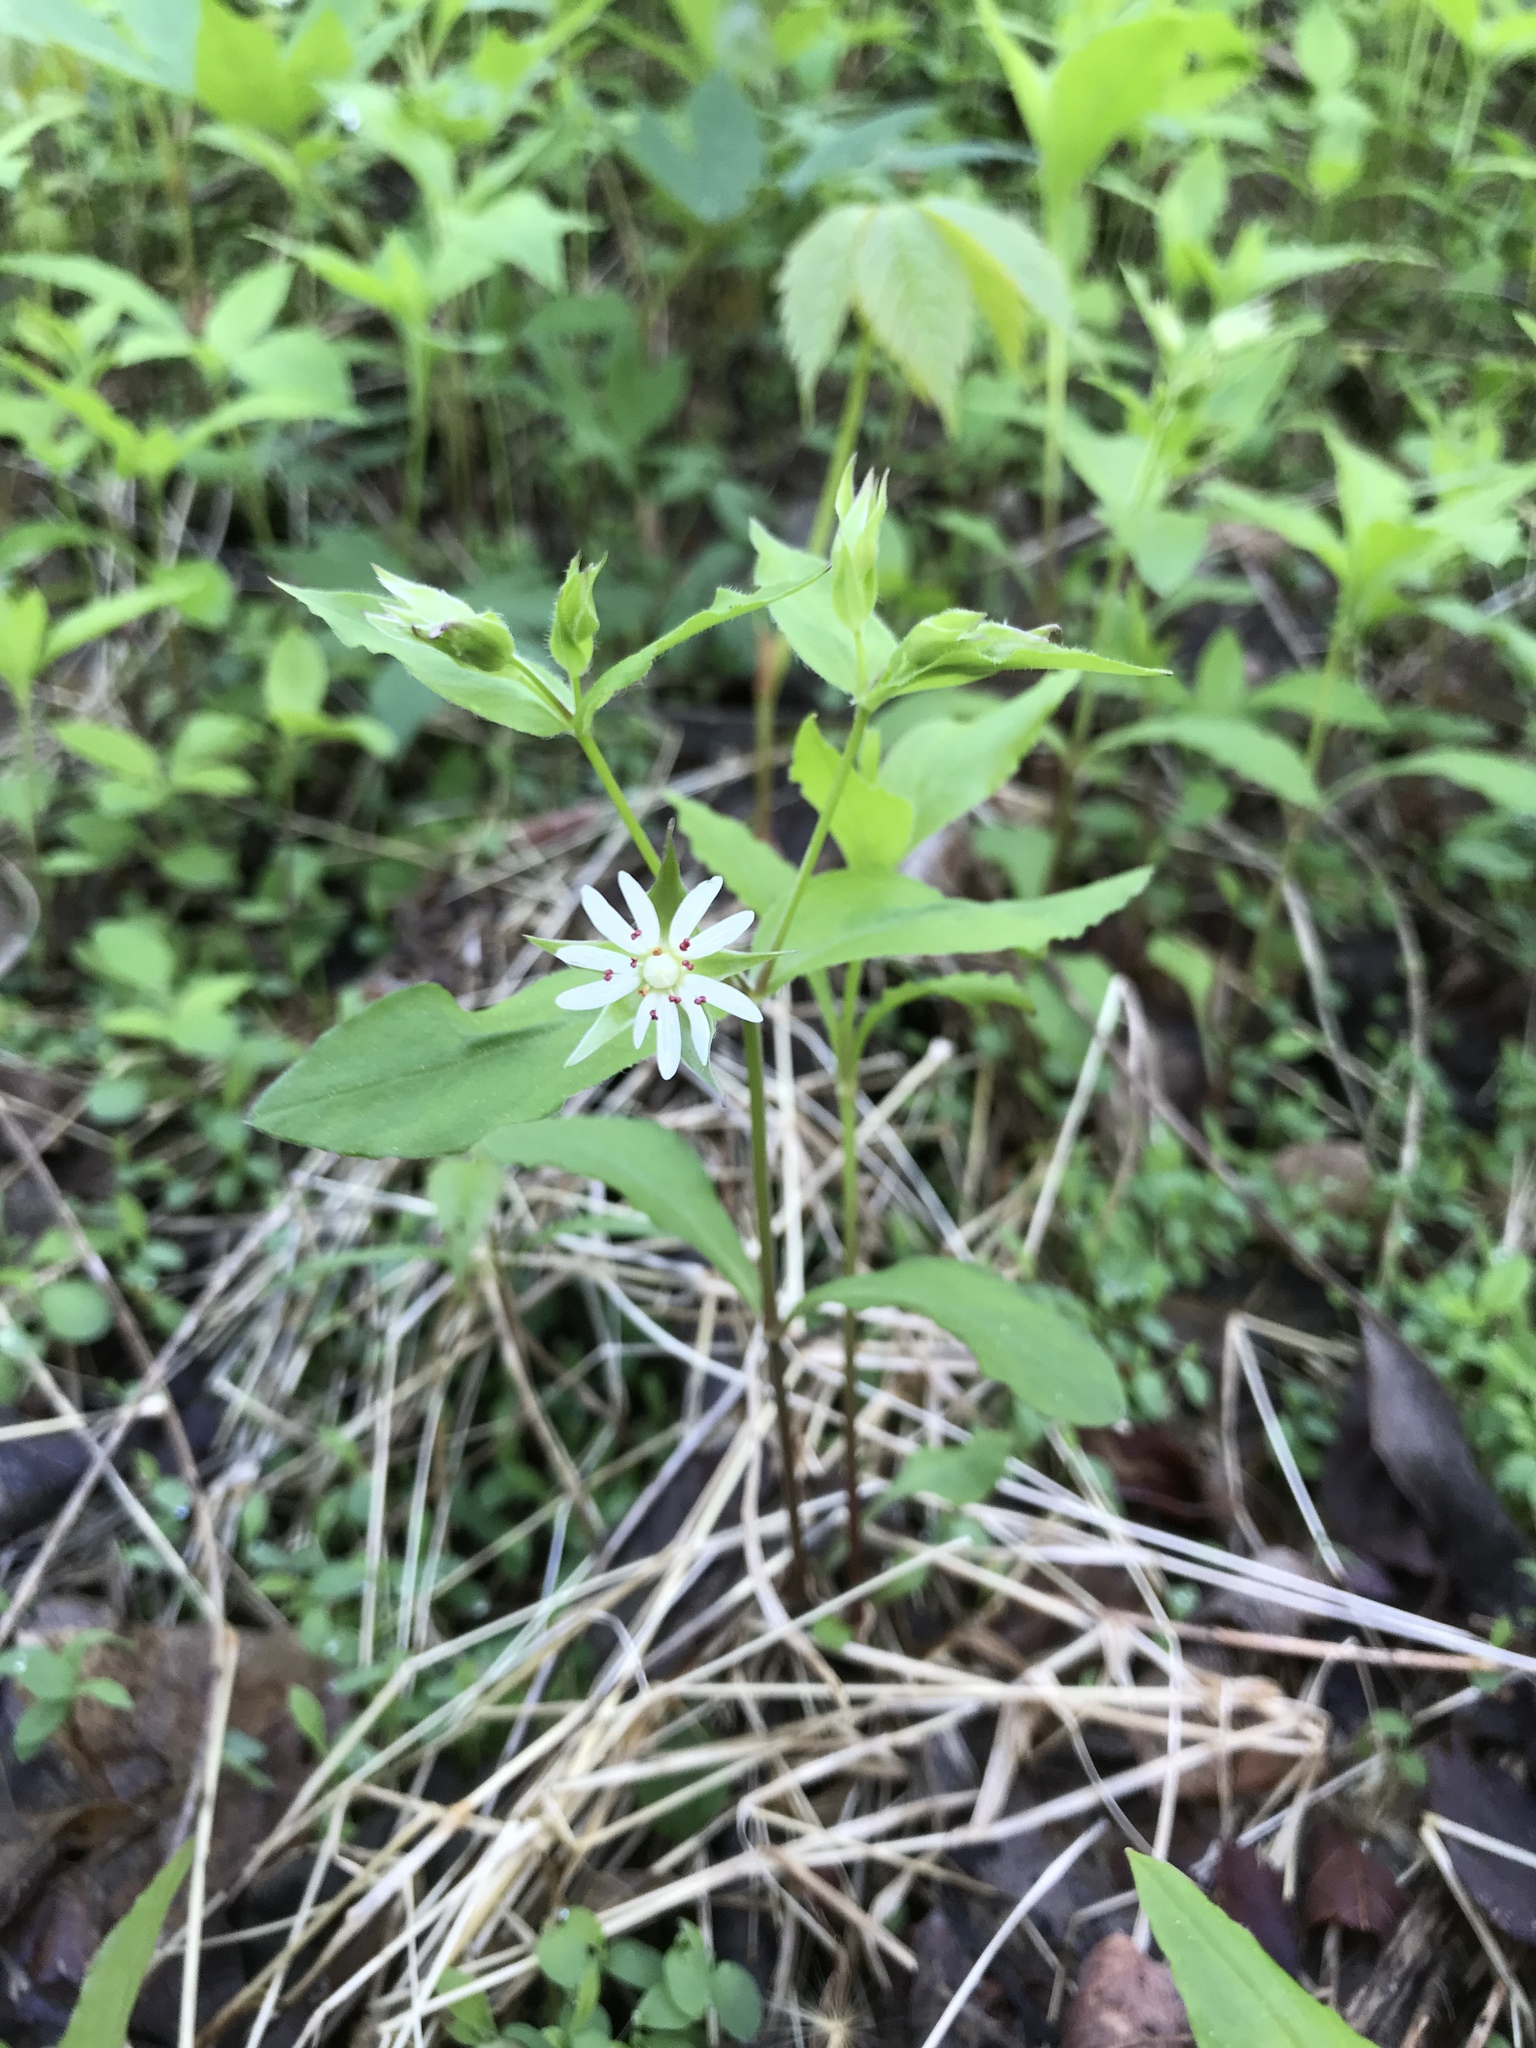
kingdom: Plantae
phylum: Tracheophyta
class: Magnoliopsida
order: Caryophyllales
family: Caryophyllaceae
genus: Stellaria
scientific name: Stellaria corei
